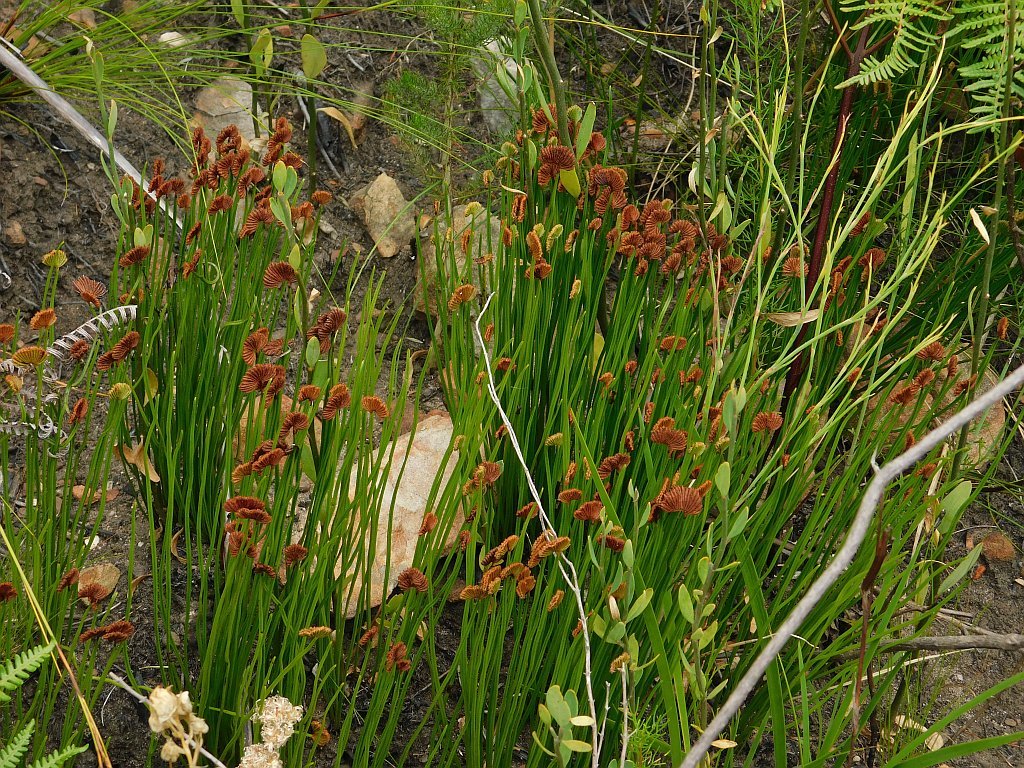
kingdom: Plantae
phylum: Tracheophyta
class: Polypodiopsida
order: Schizaeales
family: Schizaeaceae
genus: Schizaea
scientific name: Schizaea pectinata
